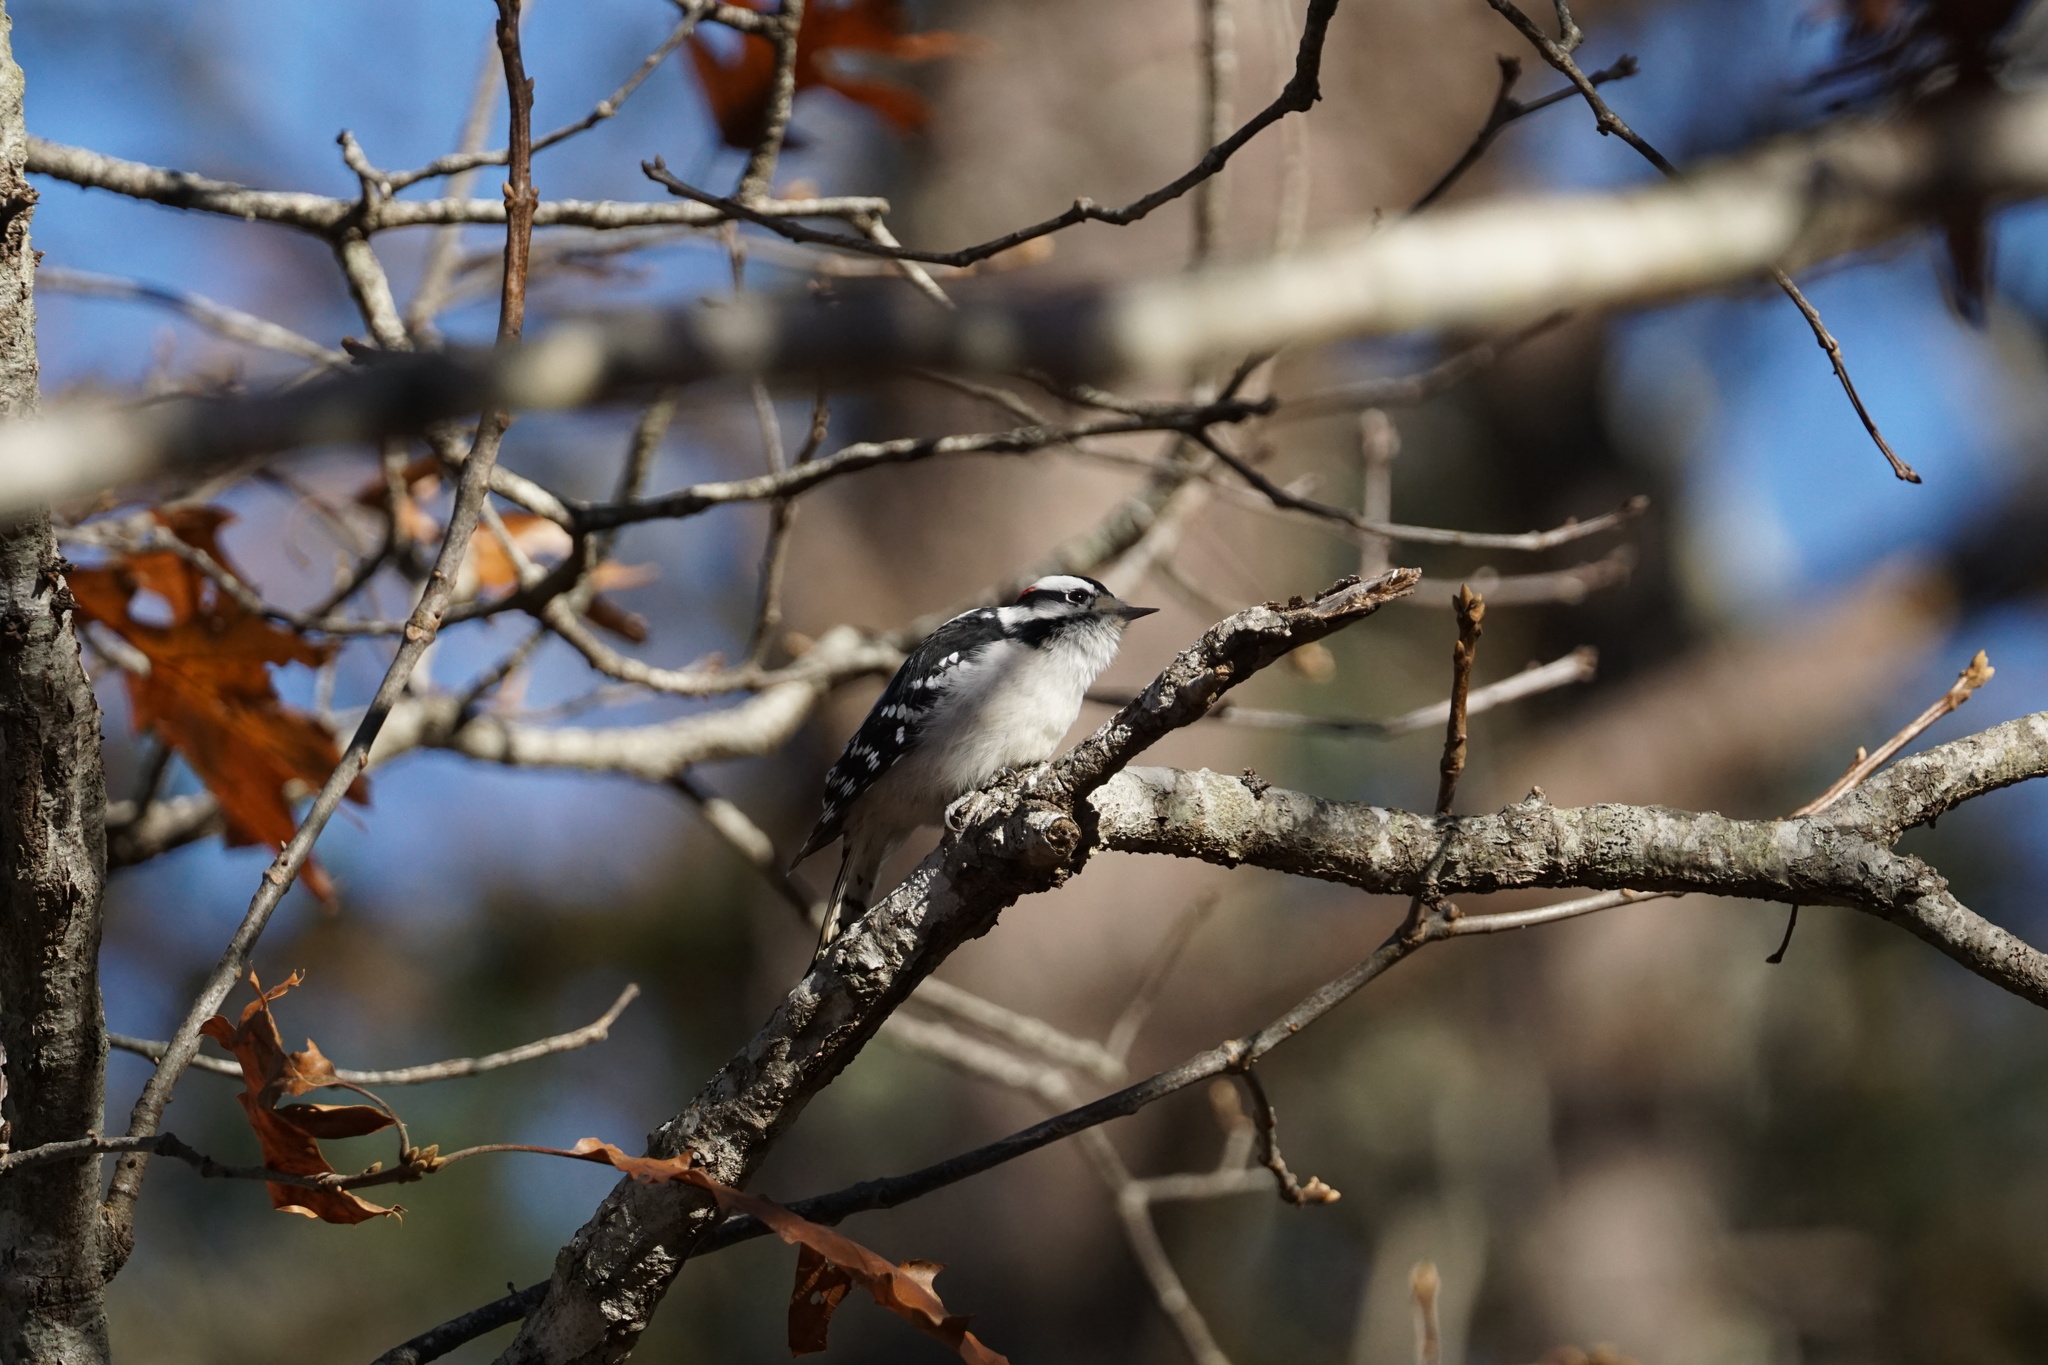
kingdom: Animalia
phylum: Chordata
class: Aves
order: Piciformes
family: Picidae
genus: Dryobates
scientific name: Dryobates pubescens
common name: Downy woodpecker
